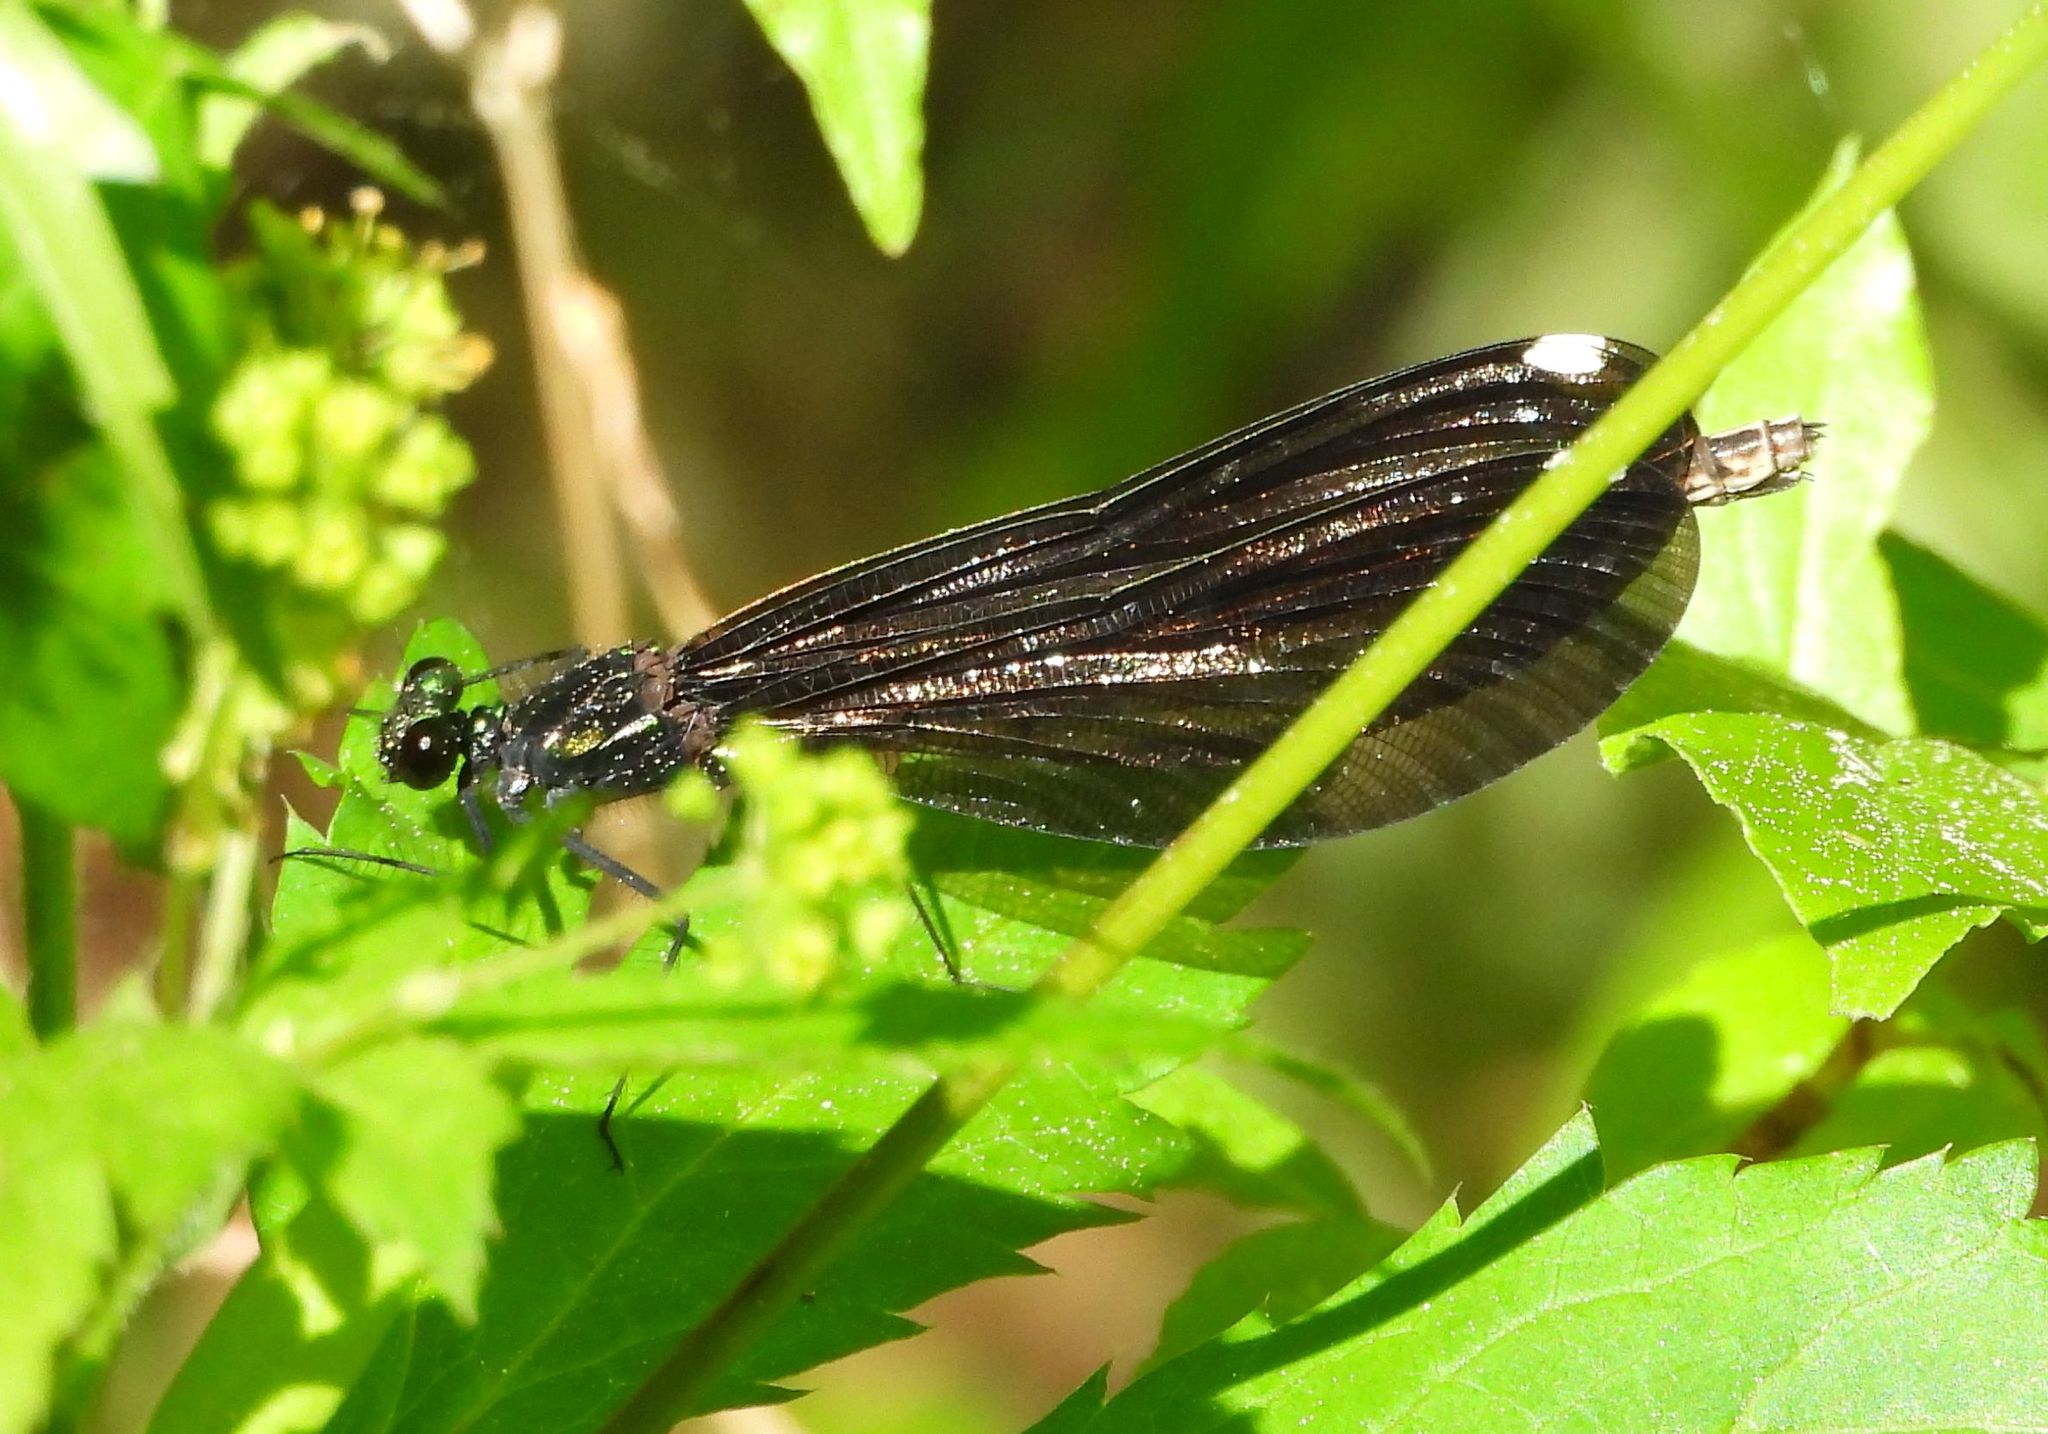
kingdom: Animalia
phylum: Arthropoda
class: Insecta
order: Odonata
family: Calopterygidae
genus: Calopteryx
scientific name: Calopteryx maculata
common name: Ebony jewelwing
